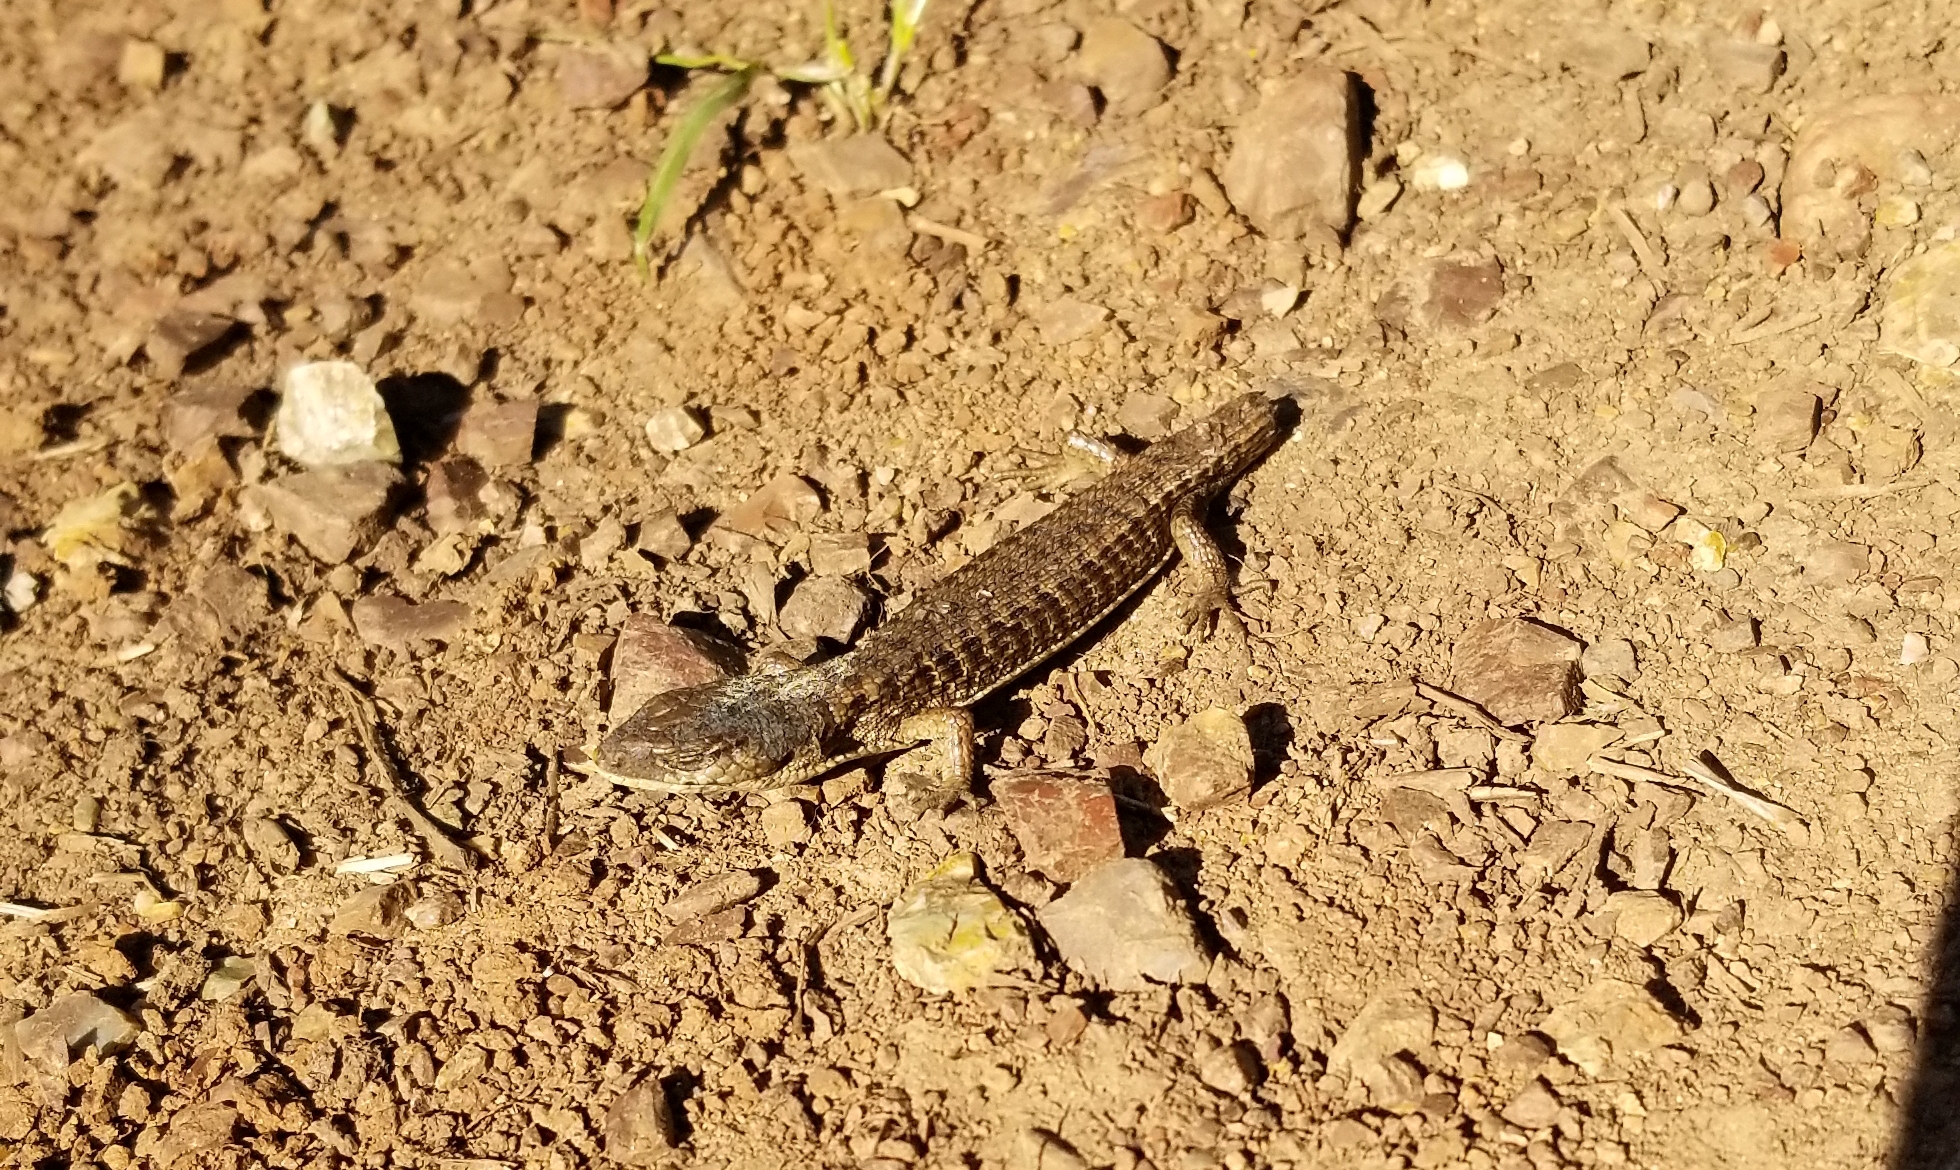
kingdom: Animalia
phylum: Chordata
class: Squamata
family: Anguidae
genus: Elgaria
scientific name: Elgaria coerulea
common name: Northern alligator lizard
